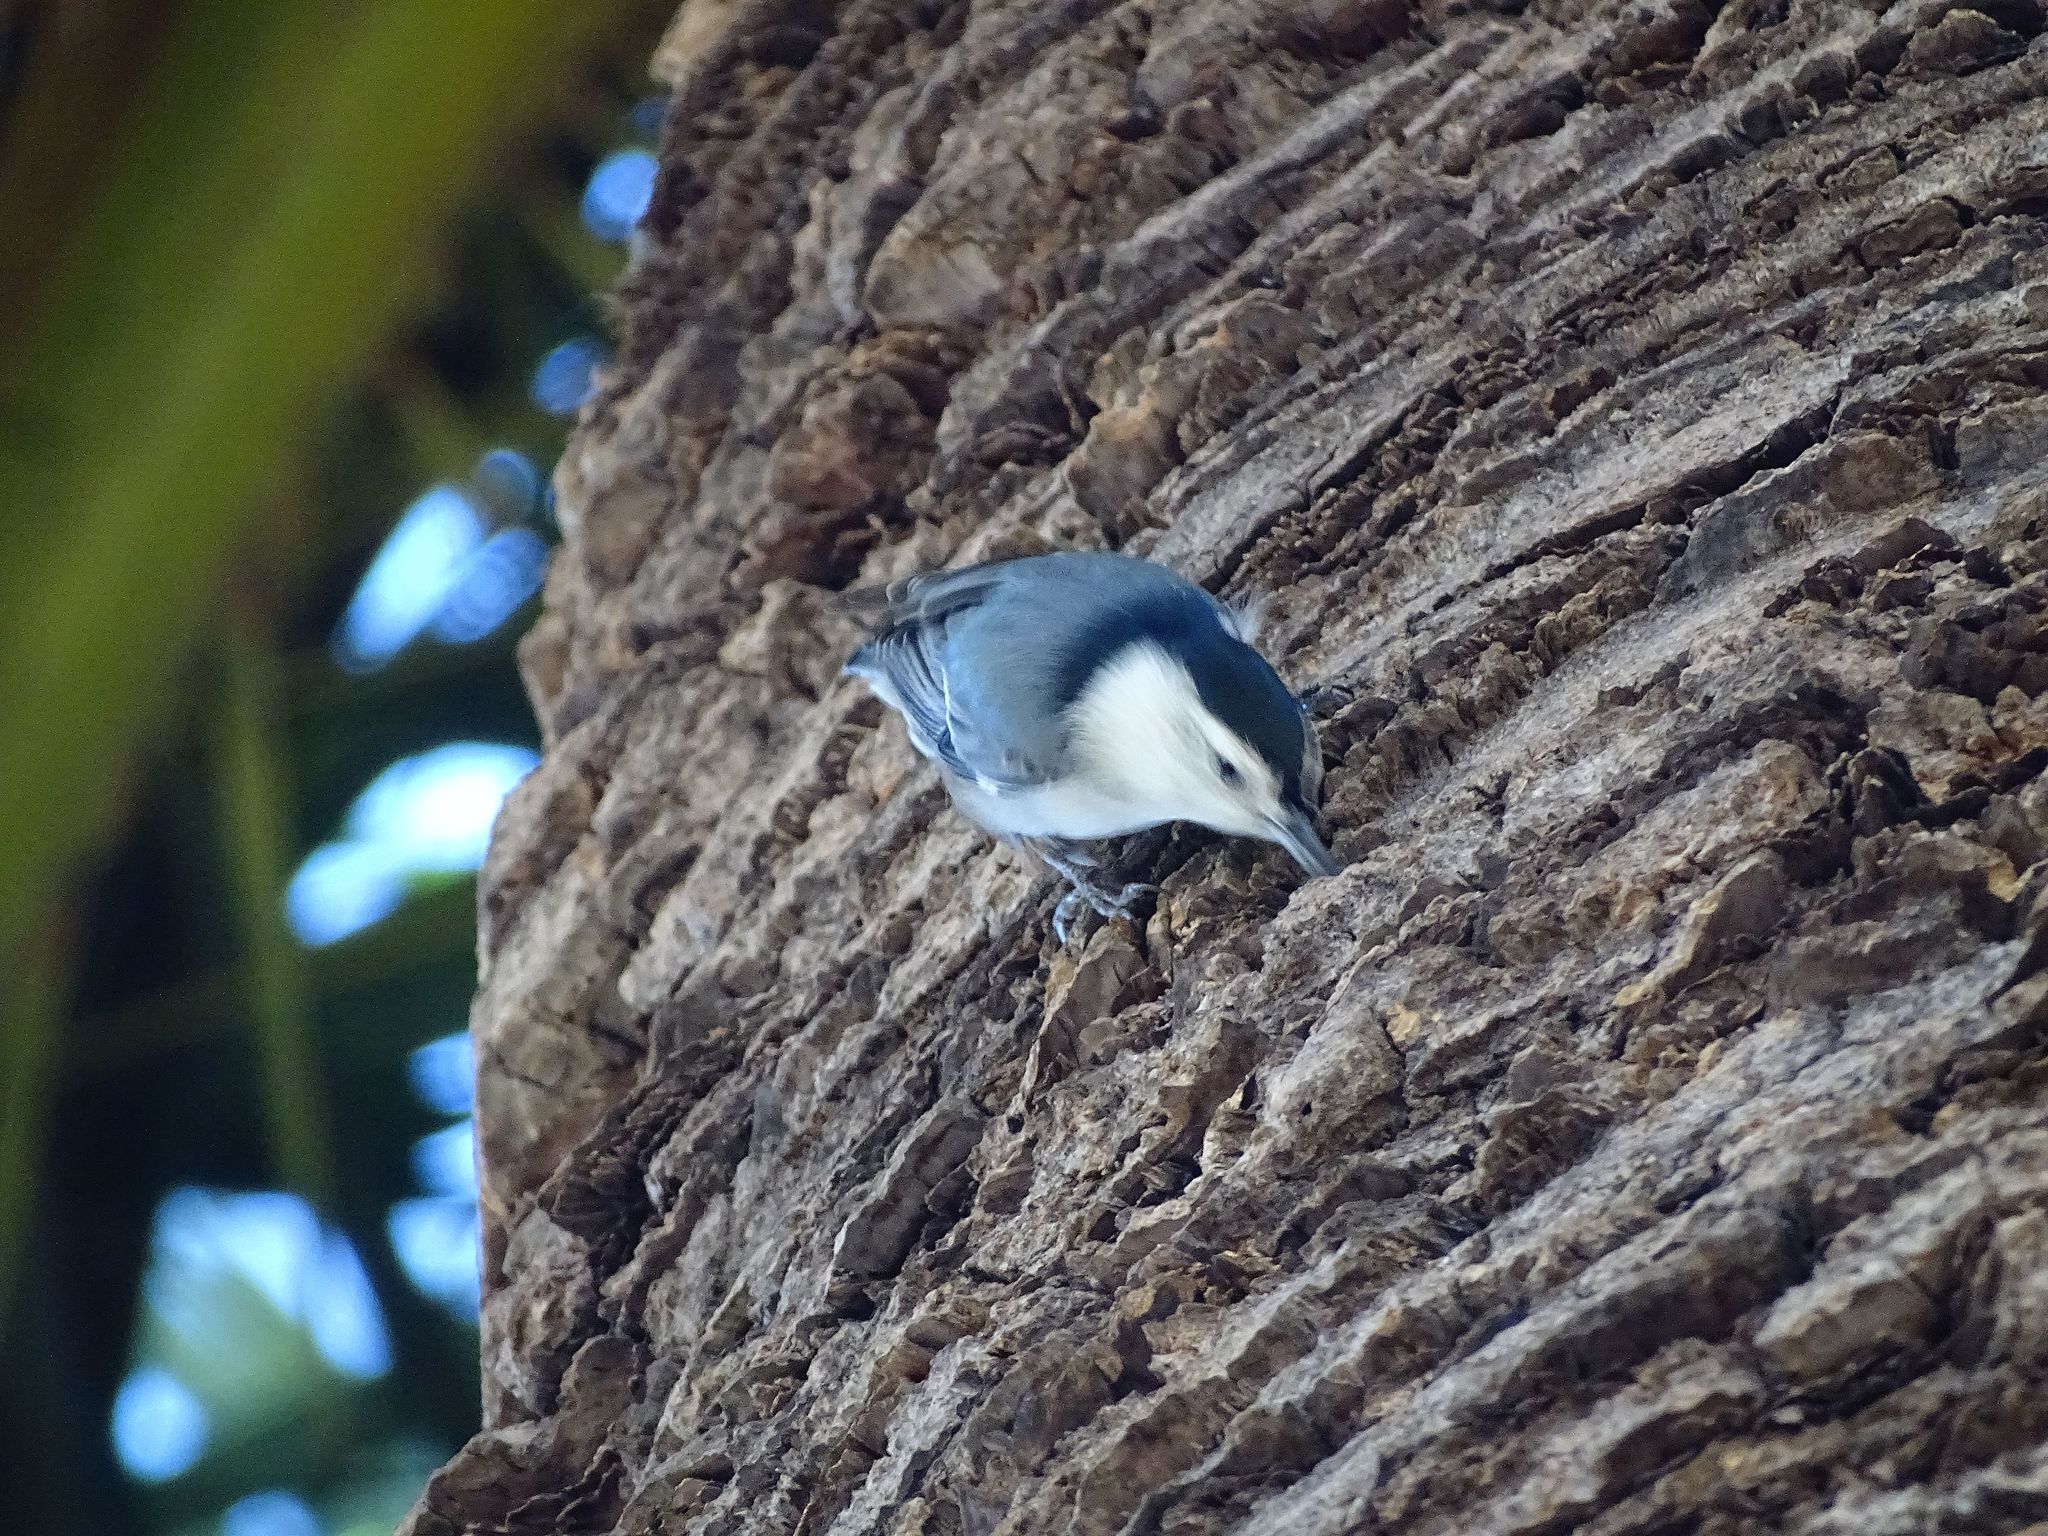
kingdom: Animalia
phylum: Chordata
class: Aves
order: Passeriformes
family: Sittidae
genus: Sitta
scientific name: Sitta carolinensis
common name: White-breasted nuthatch
